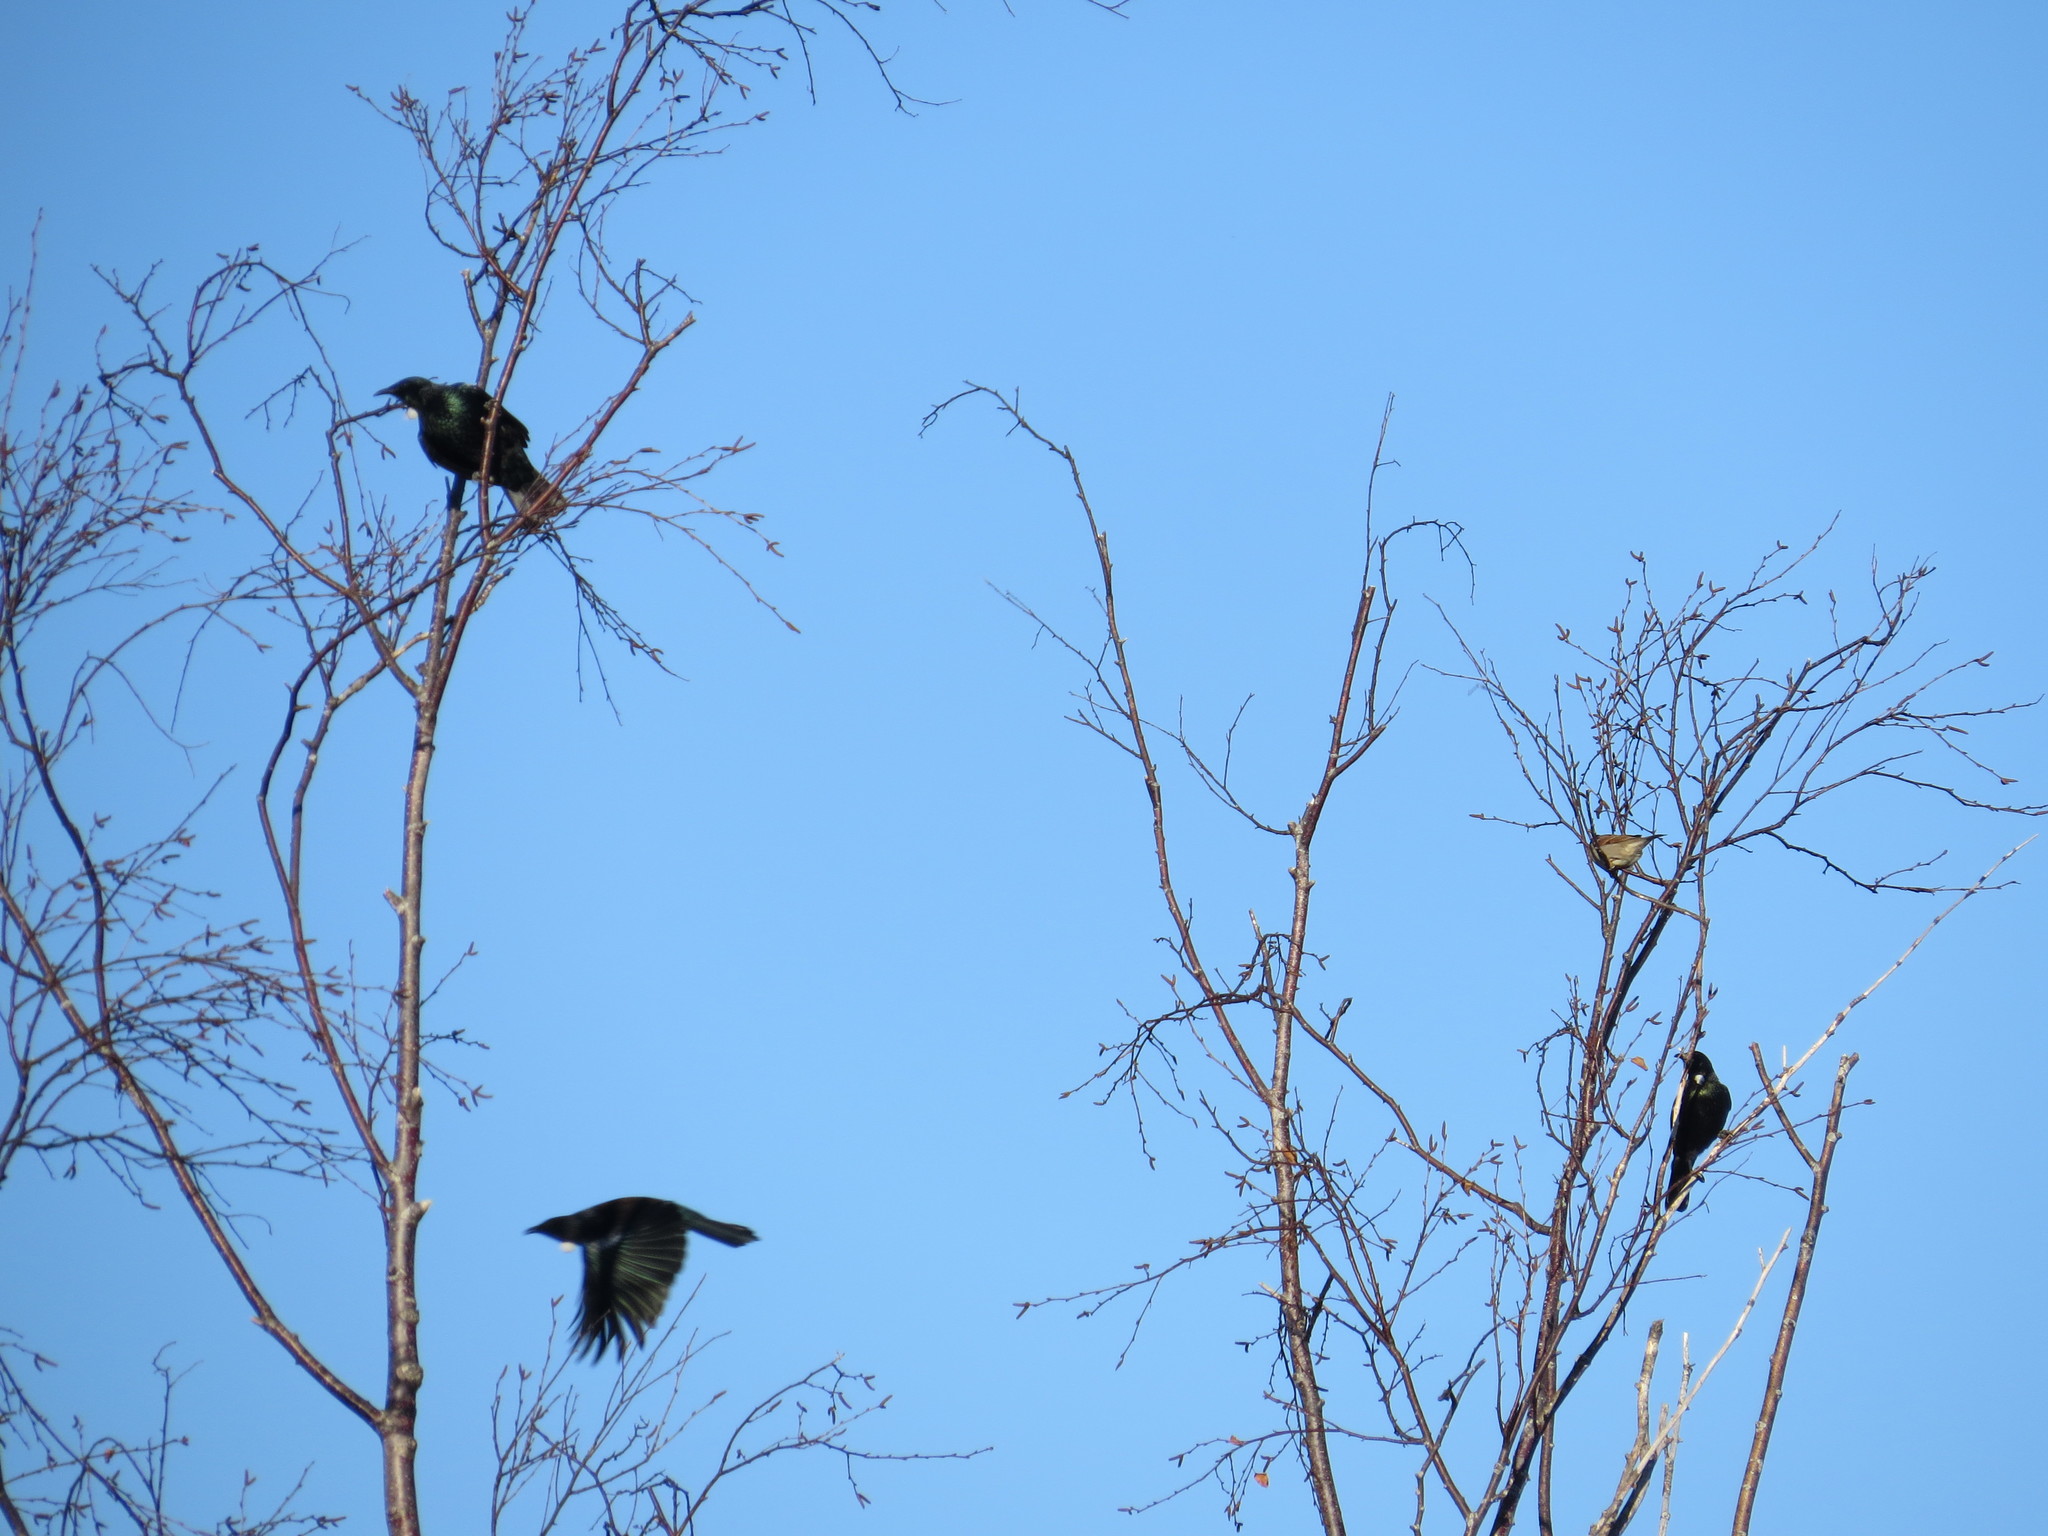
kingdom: Animalia
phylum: Chordata
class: Aves
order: Passeriformes
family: Meliphagidae
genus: Prosthemadera
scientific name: Prosthemadera novaeseelandiae
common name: Tui
